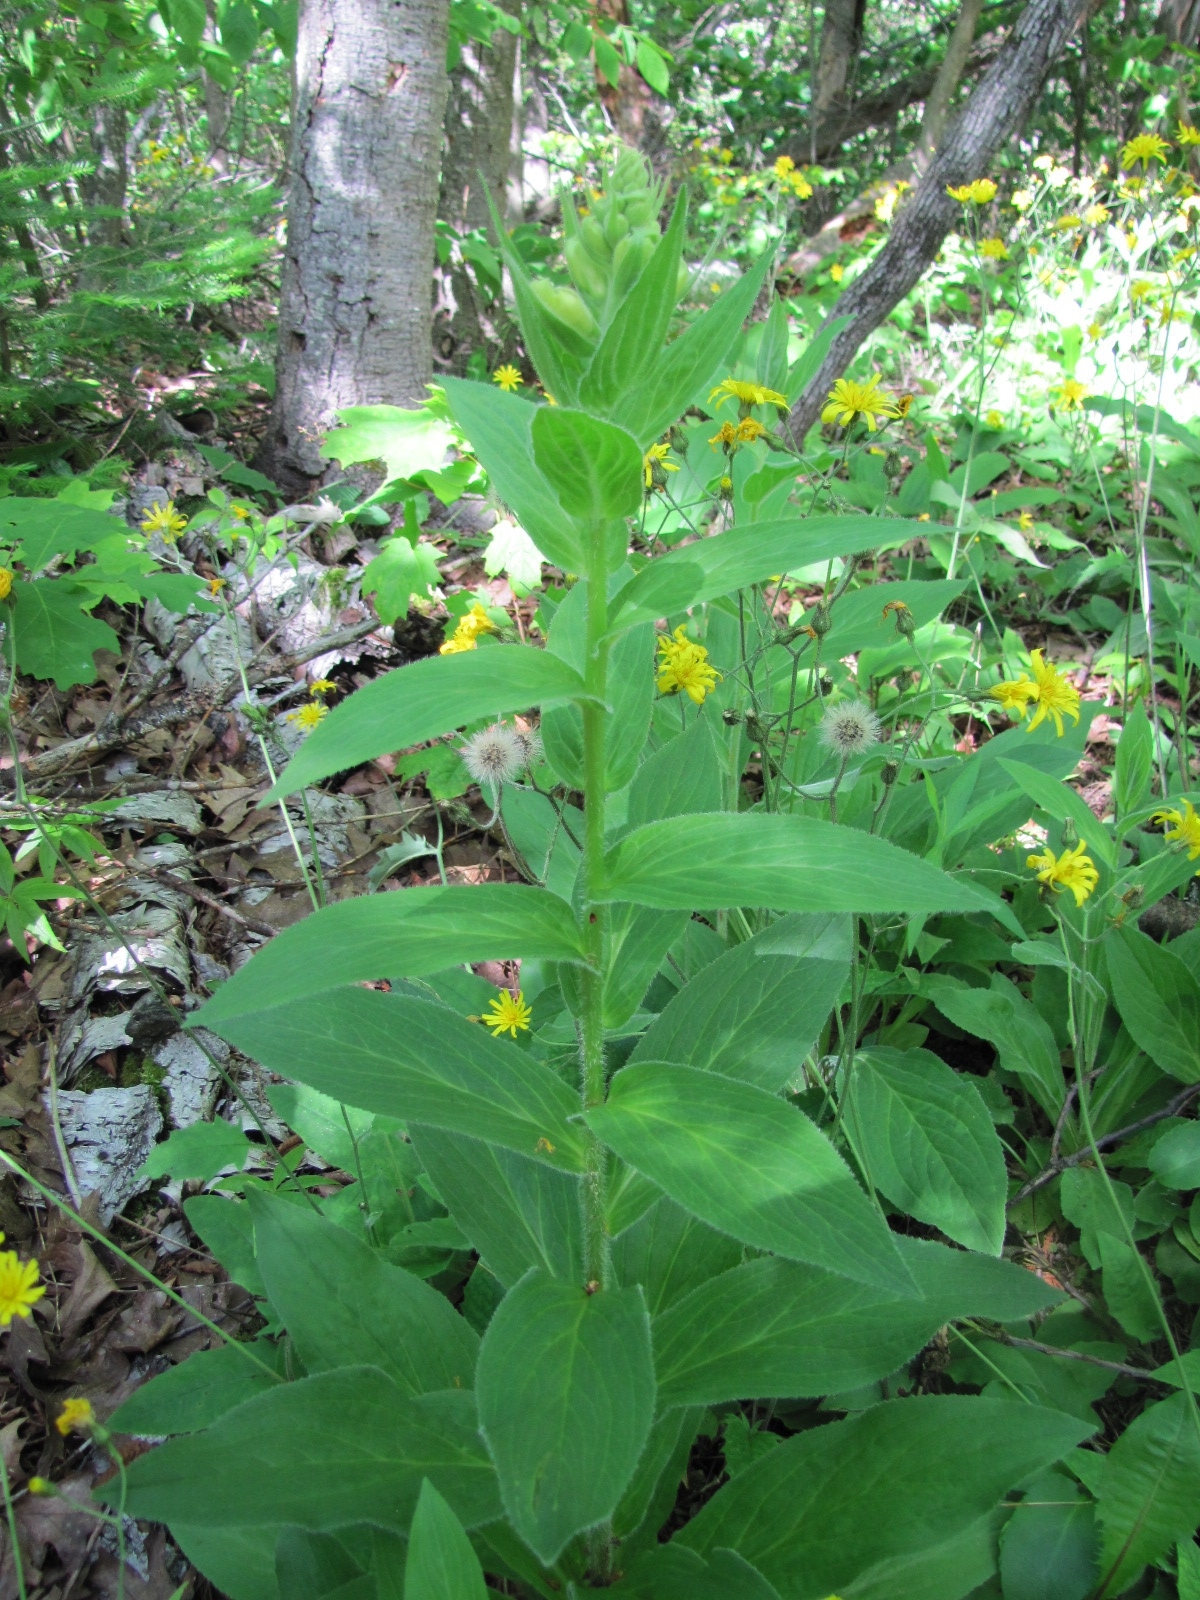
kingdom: Plantae
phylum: Tracheophyta
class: Magnoliopsida
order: Lamiales
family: Plantaginaceae
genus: Digitalis
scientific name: Digitalis grandiflora
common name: Yellow foxglove
